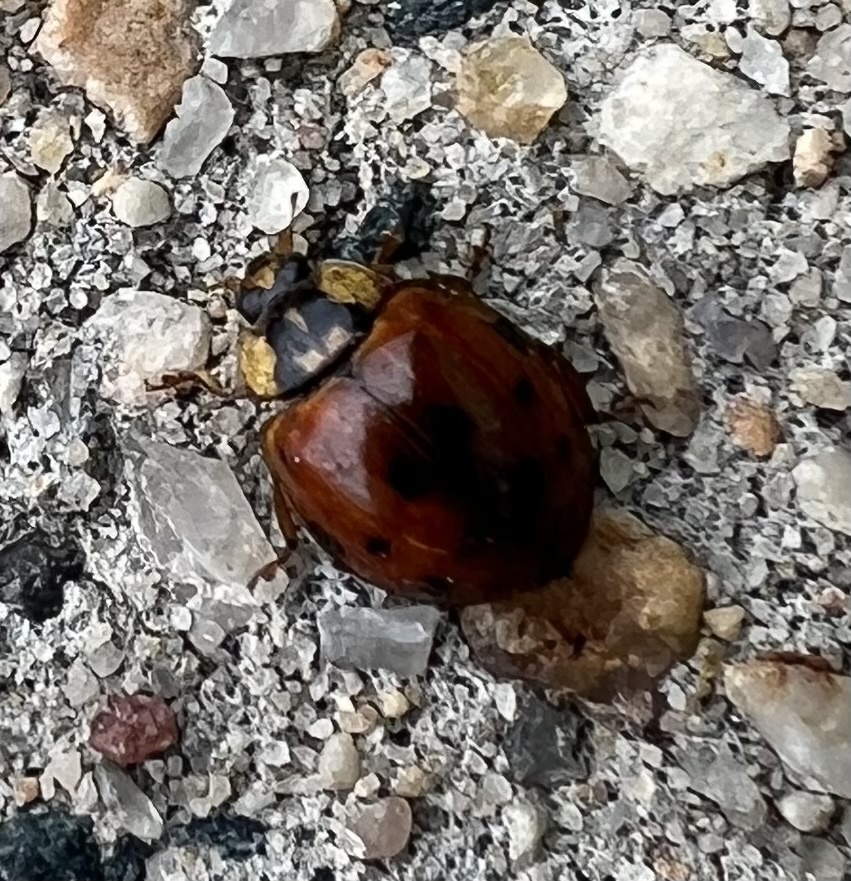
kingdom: Animalia
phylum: Arthropoda
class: Insecta
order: Coleoptera
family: Coccinellidae
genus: Harmonia
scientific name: Harmonia axyridis
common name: Harlequin ladybird
